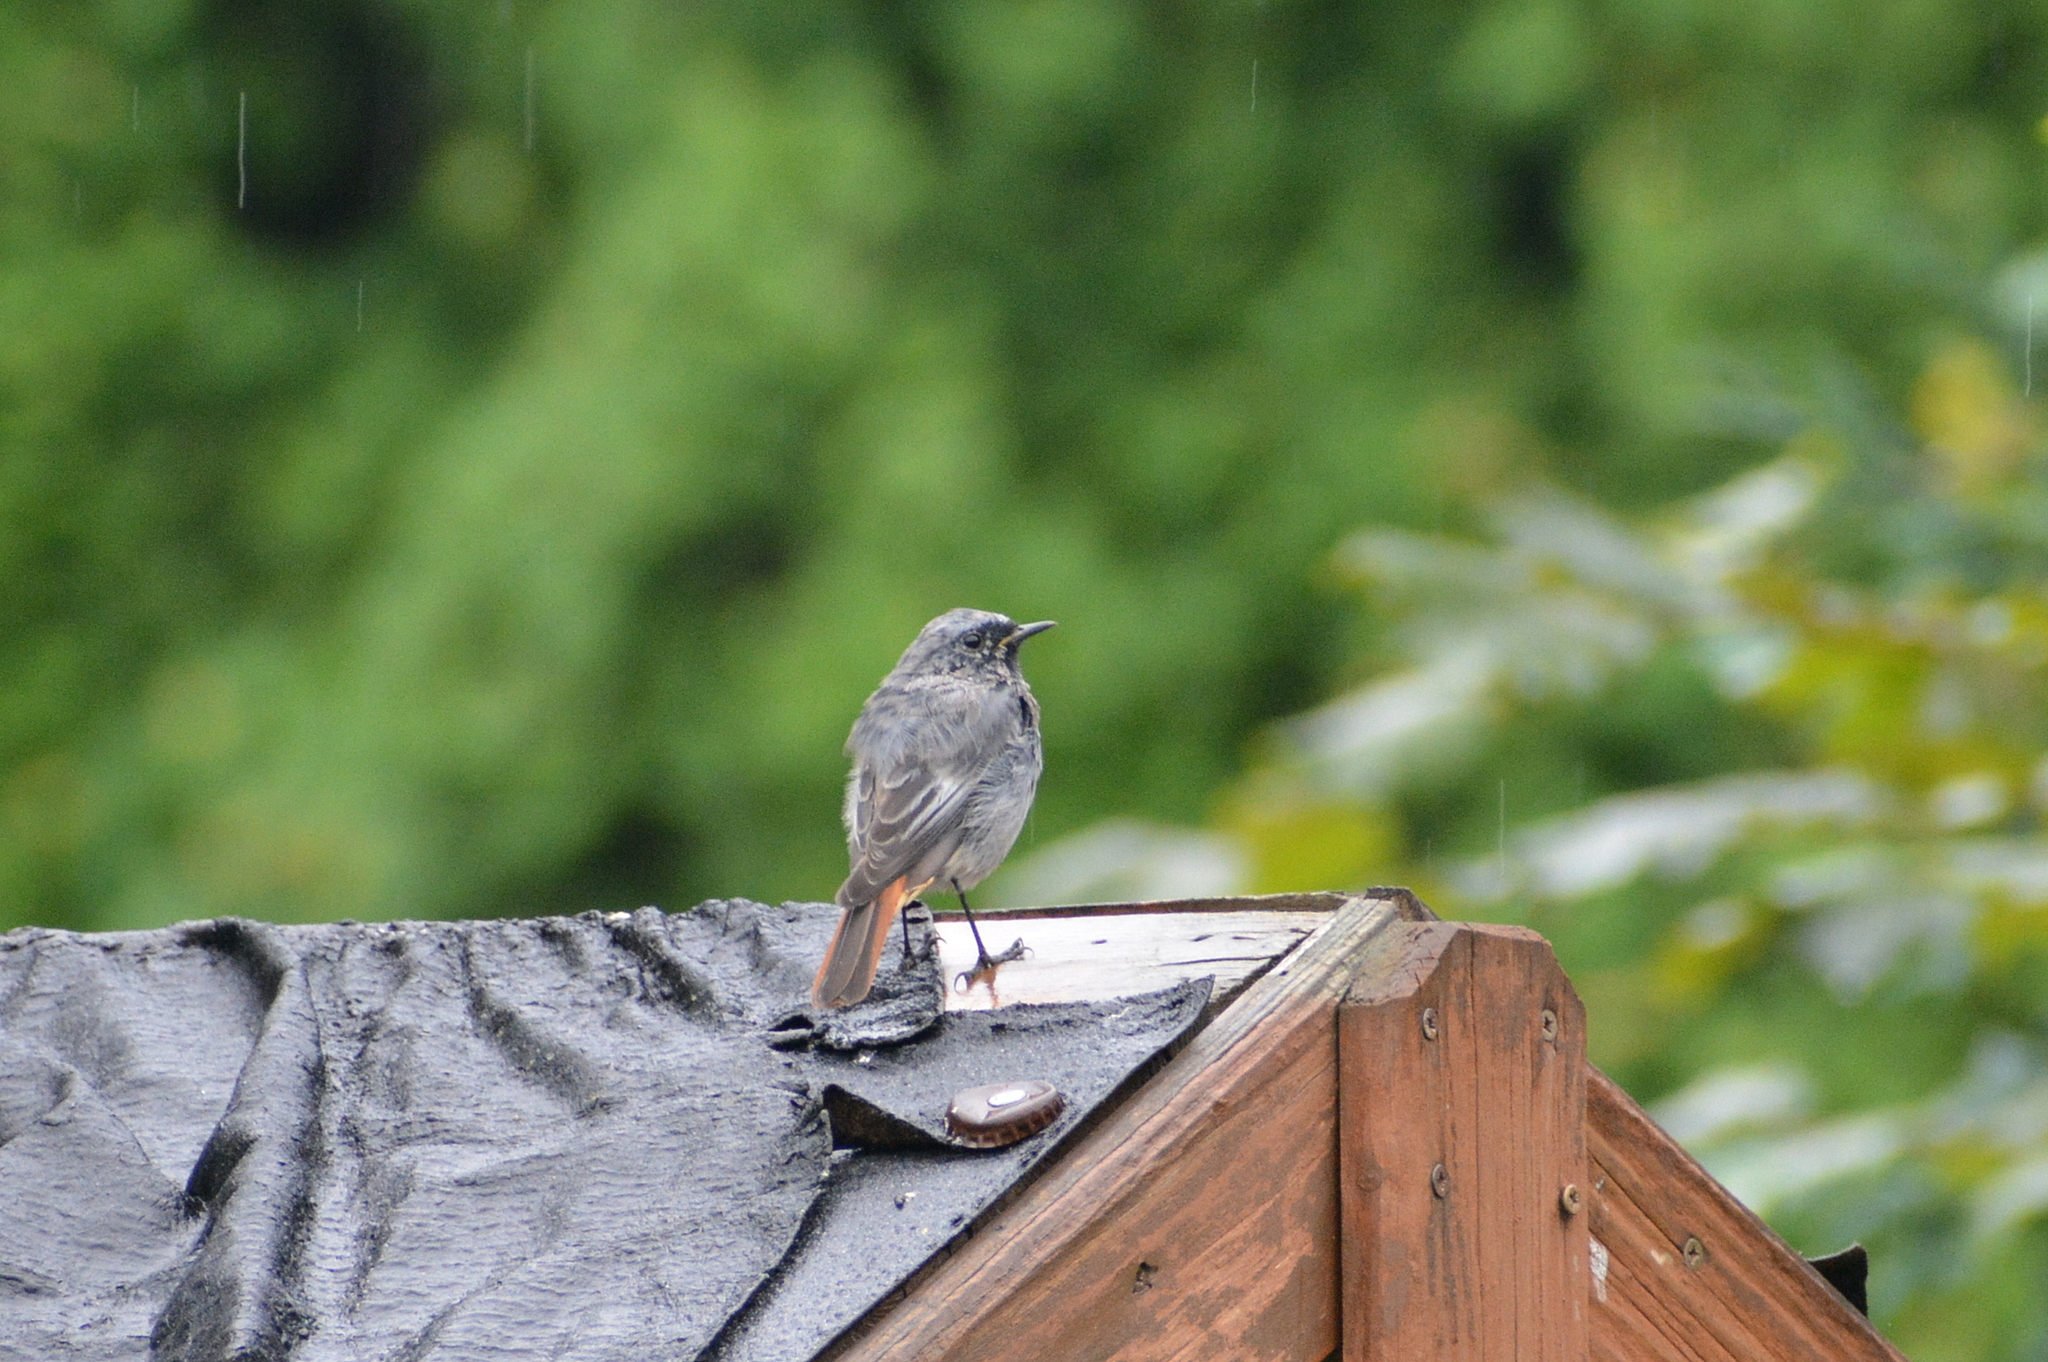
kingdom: Animalia
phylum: Chordata
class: Aves
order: Passeriformes
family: Muscicapidae
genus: Phoenicurus
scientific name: Phoenicurus ochruros
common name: Black redstart
